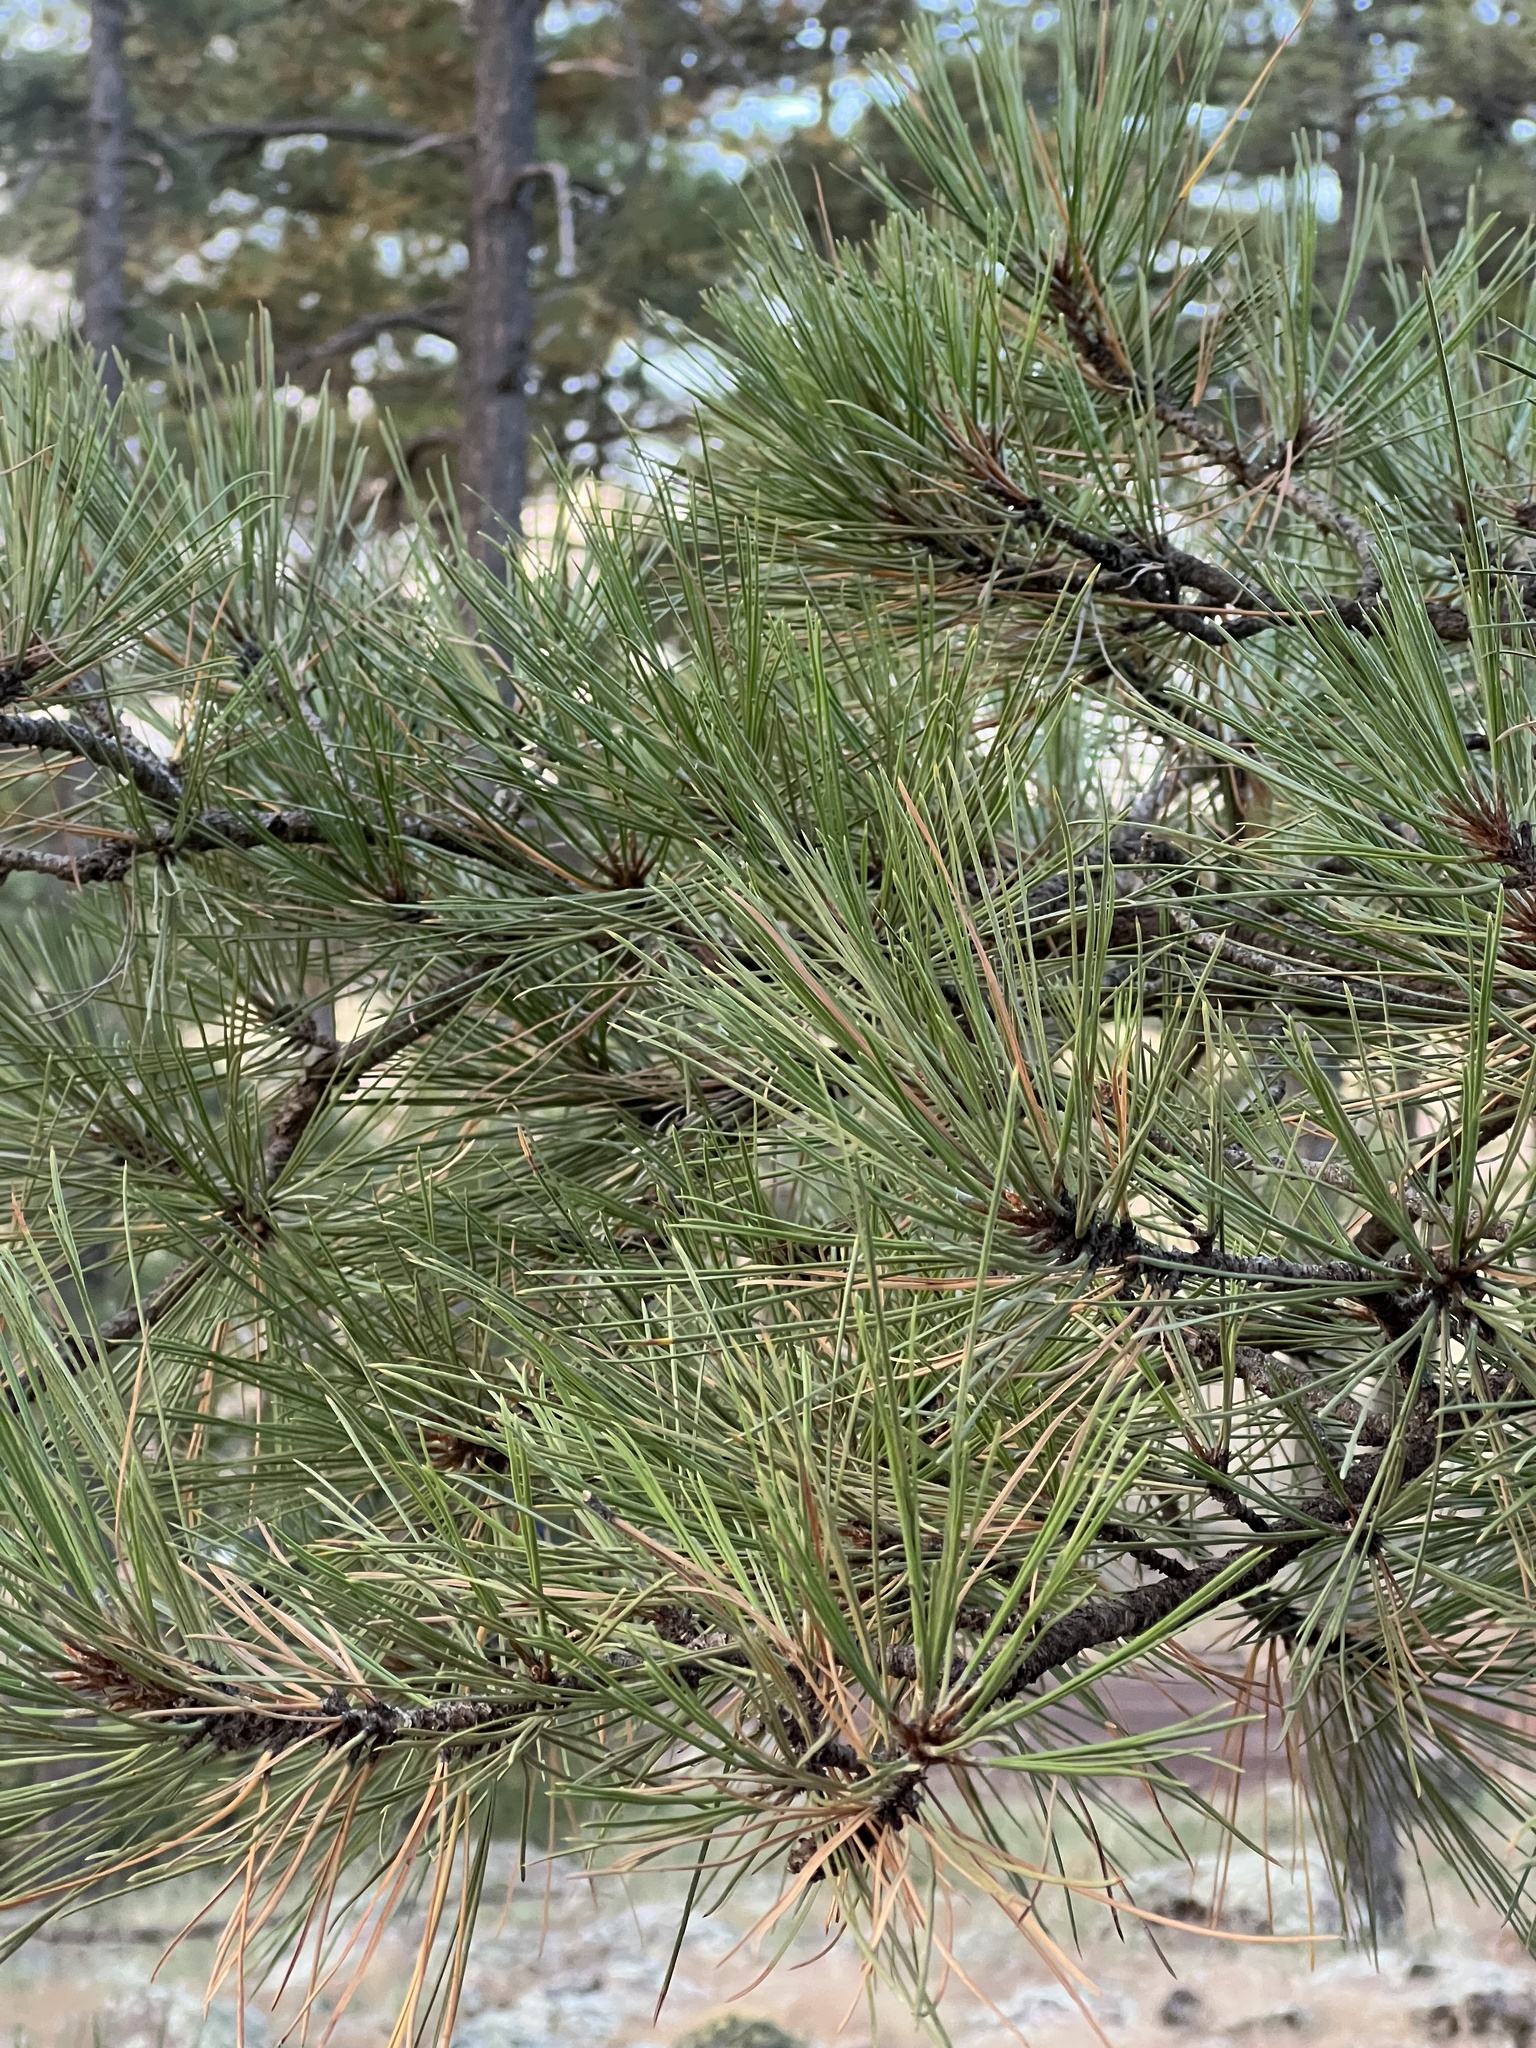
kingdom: Plantae
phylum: Tracheophyta
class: Pinopsida
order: Pinales
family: Pinaceae
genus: Pinus
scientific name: Pinus ponderosa
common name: Western yellow-pine
